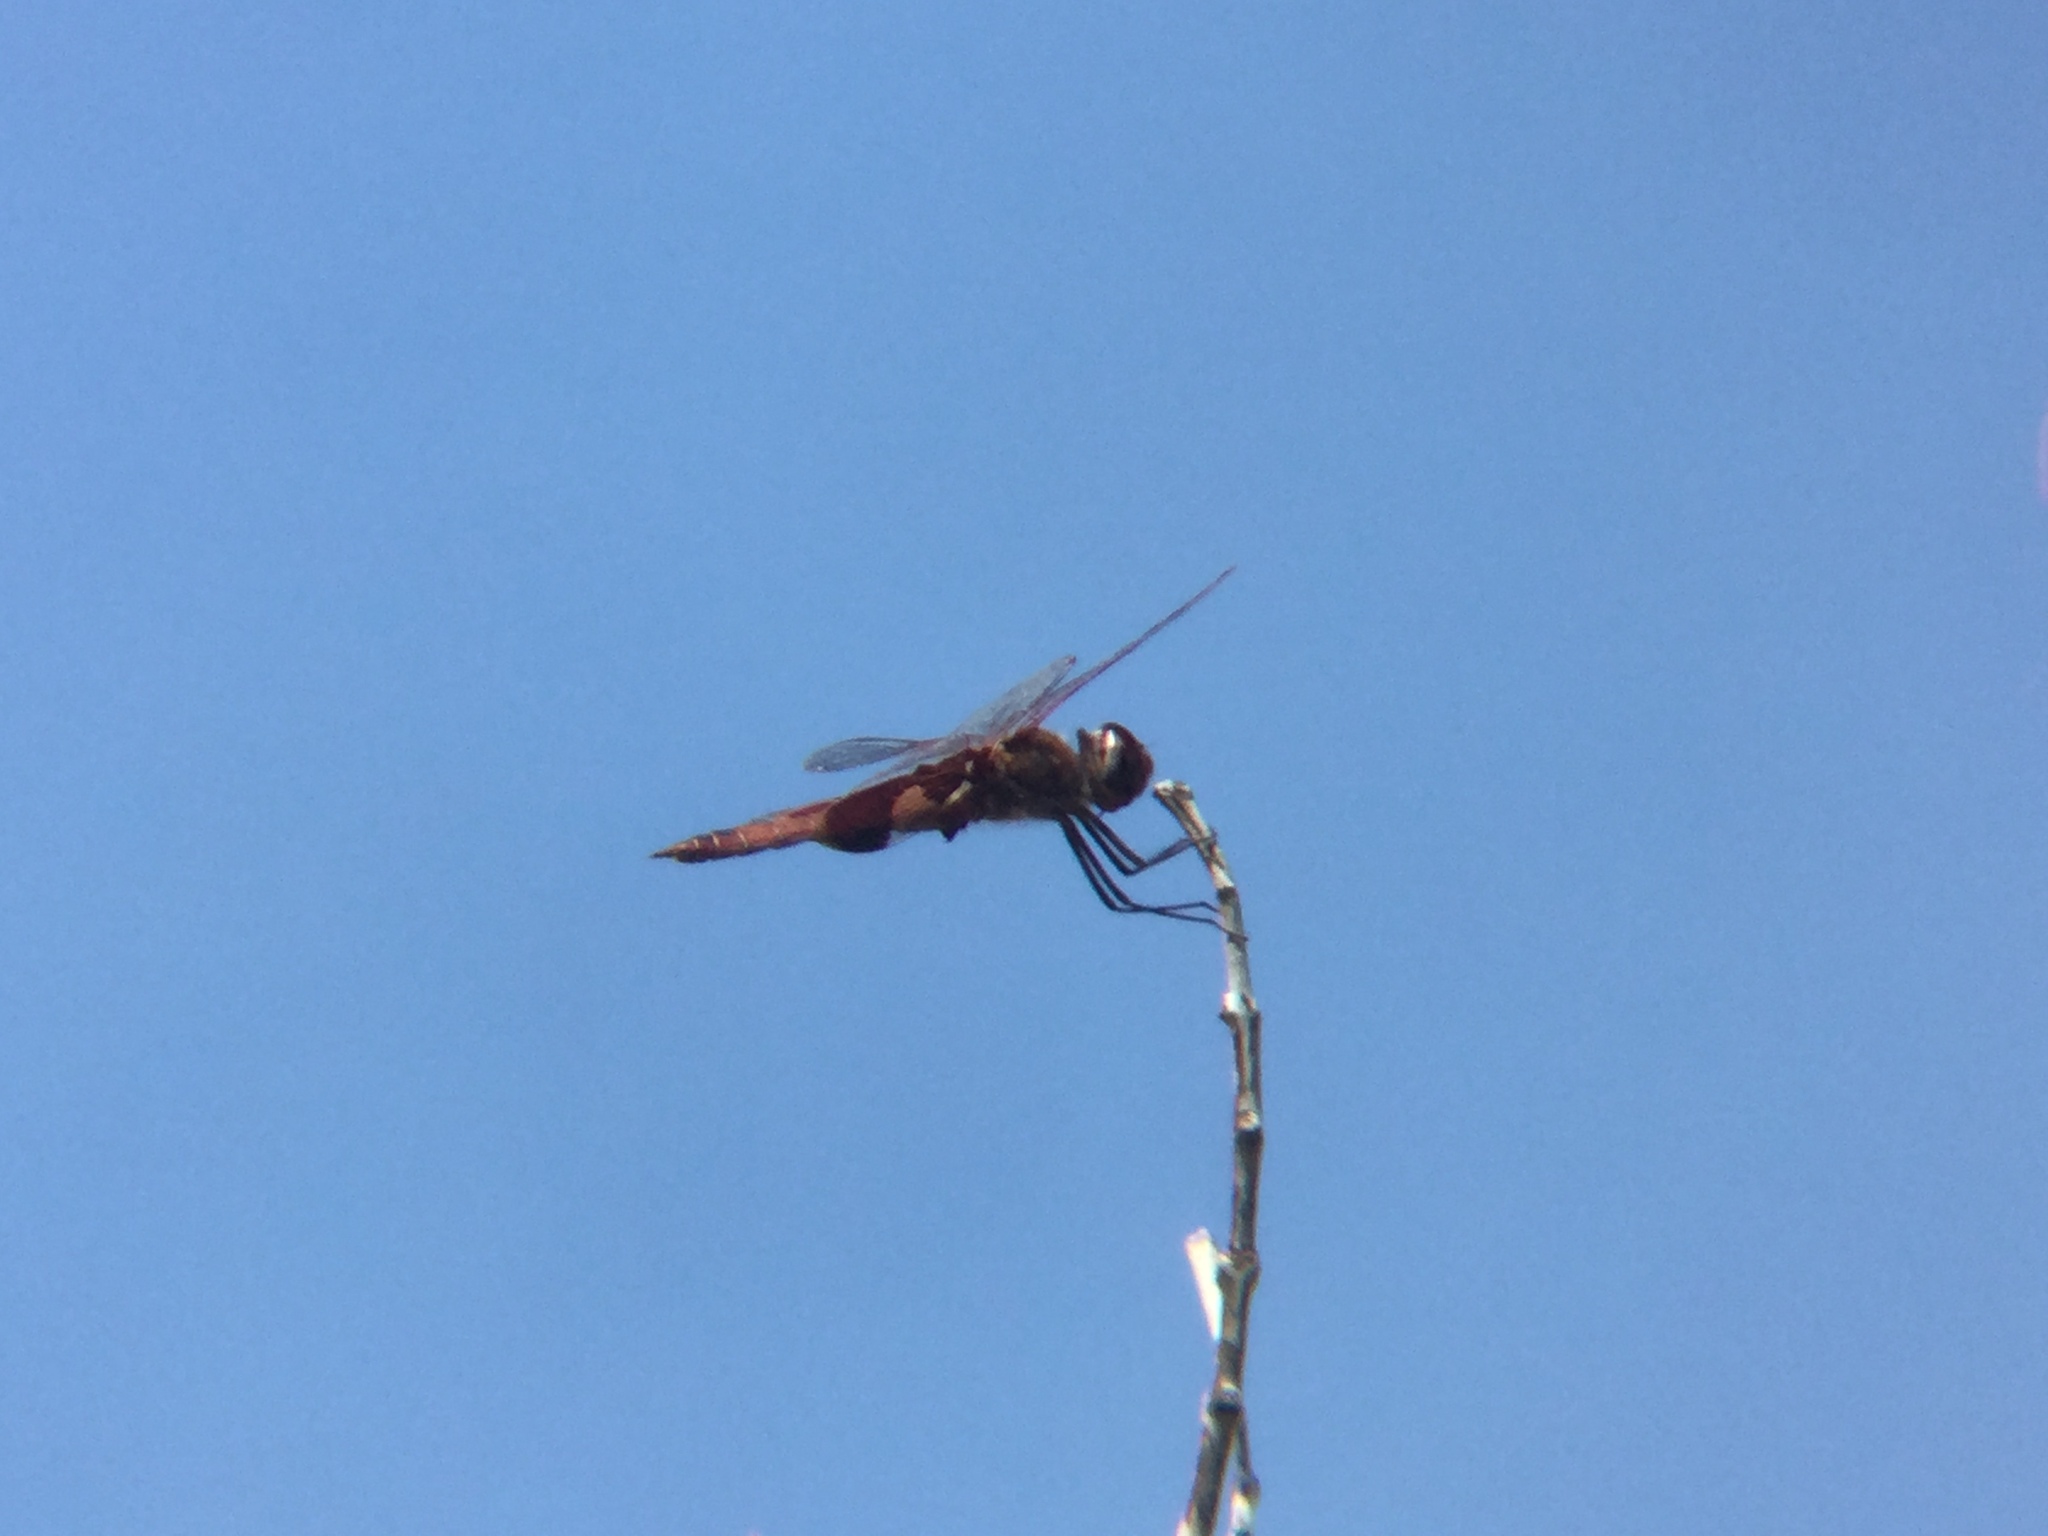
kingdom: Animalia
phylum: Arthropoda
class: Insecta
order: Odonata
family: Libellulidae
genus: Tramea
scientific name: Tramea onusta
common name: Red saddlebags
